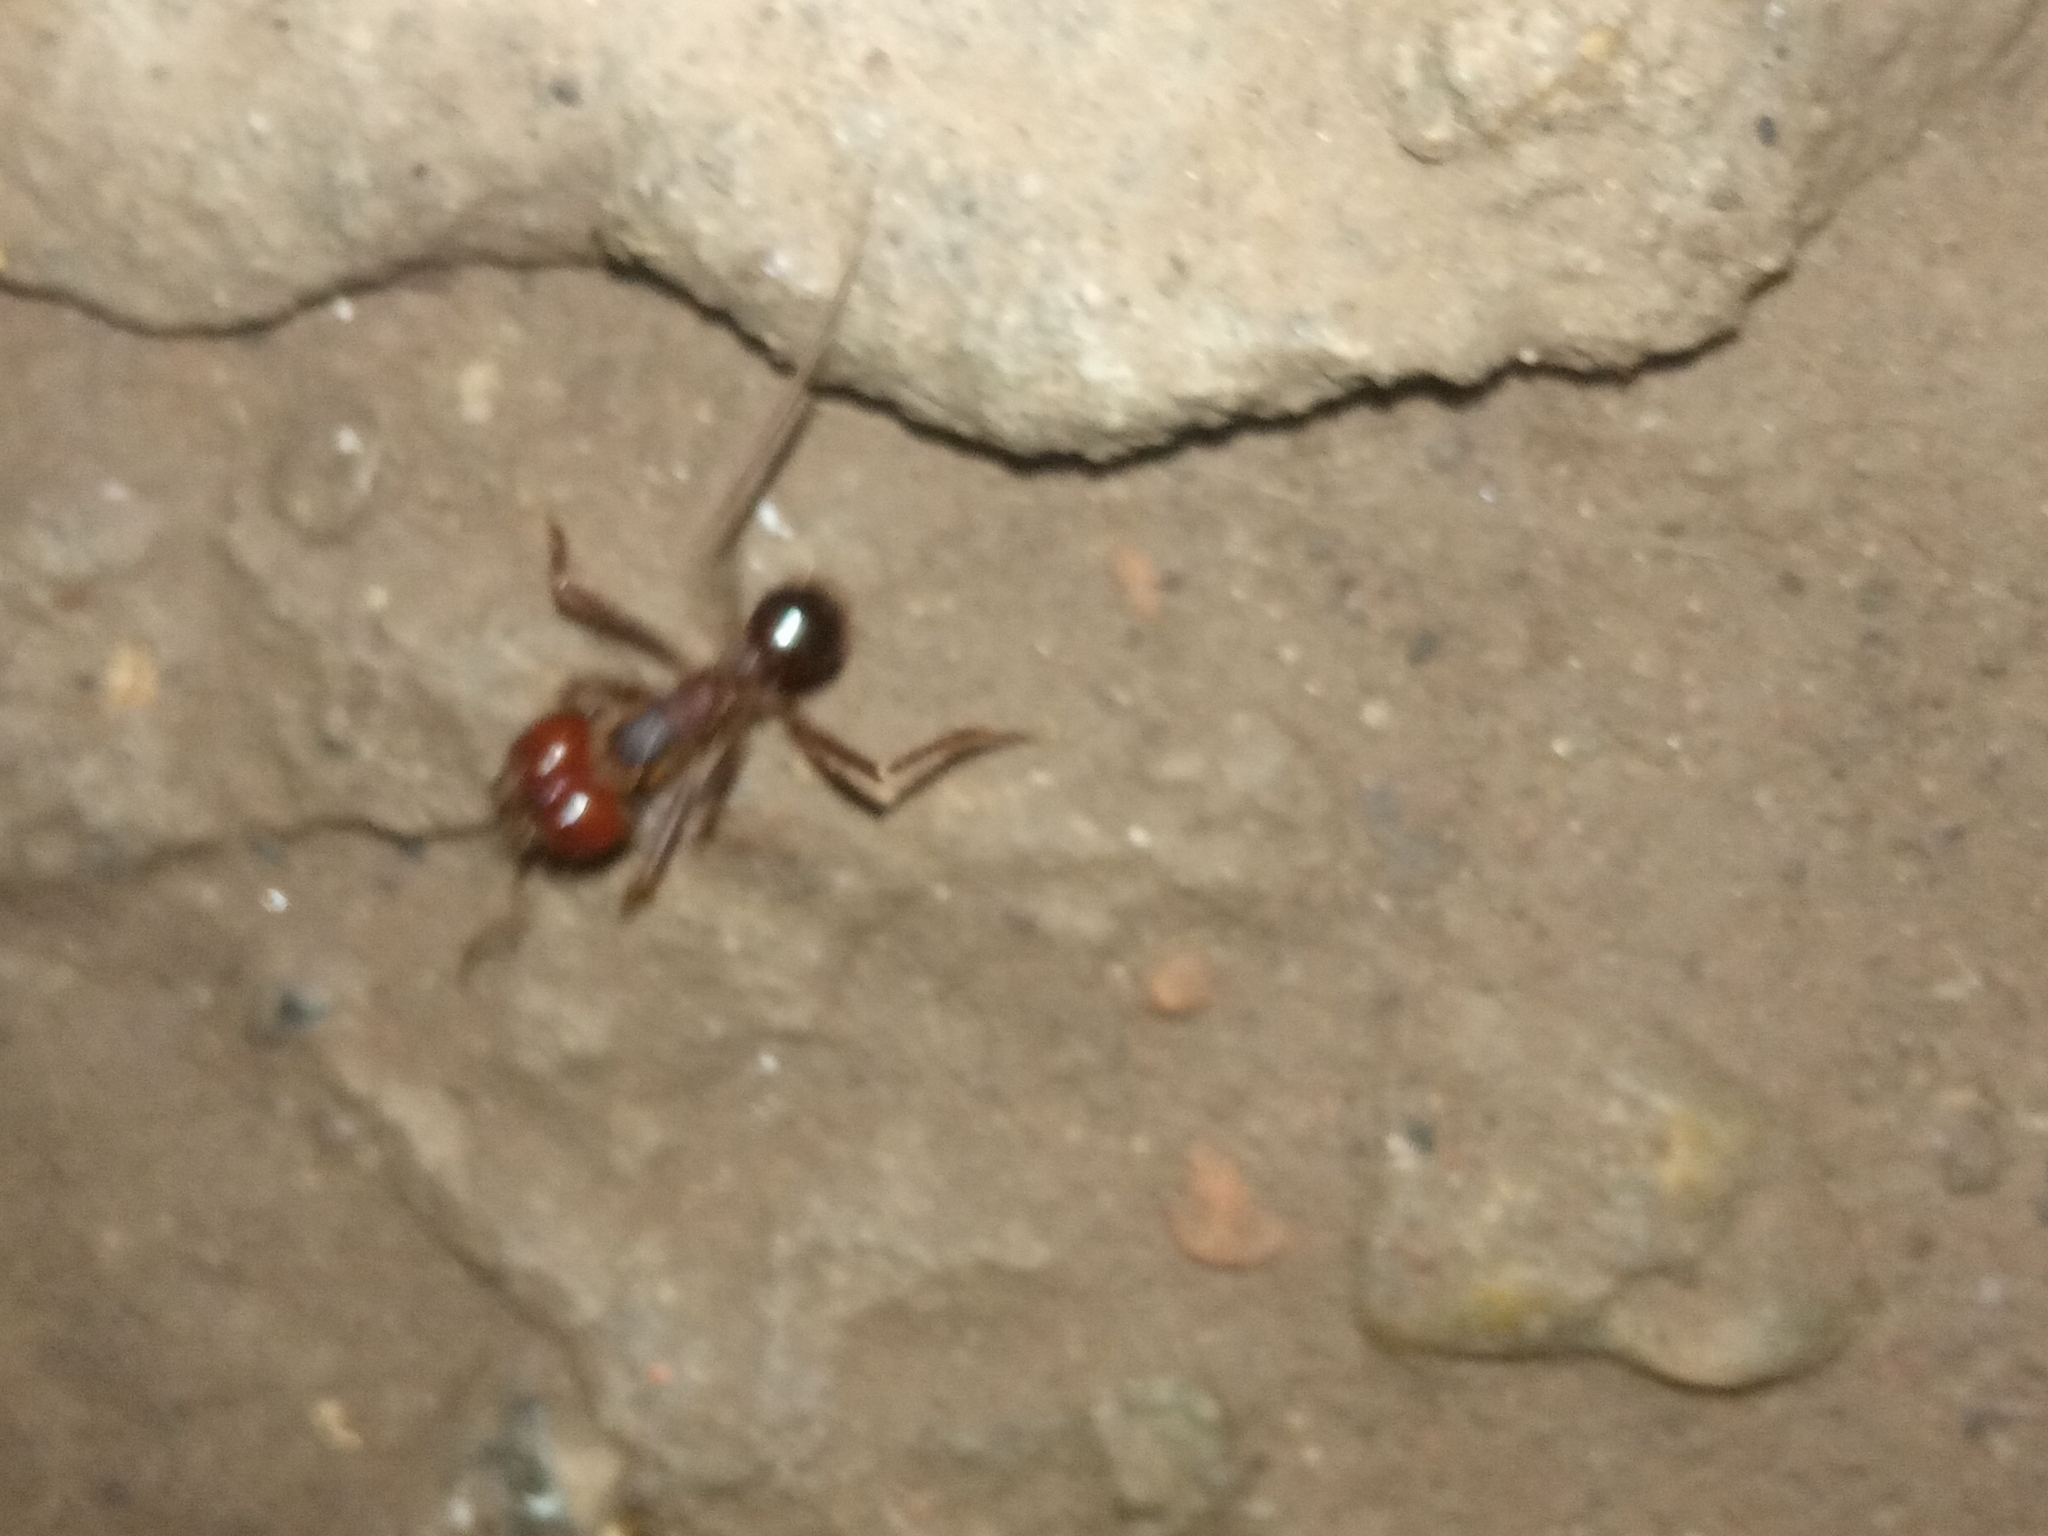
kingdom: Animalia
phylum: Arthropoda
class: Insecta
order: Hymenoptera
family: Formicidae
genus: Atta
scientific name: Atta mexicana
